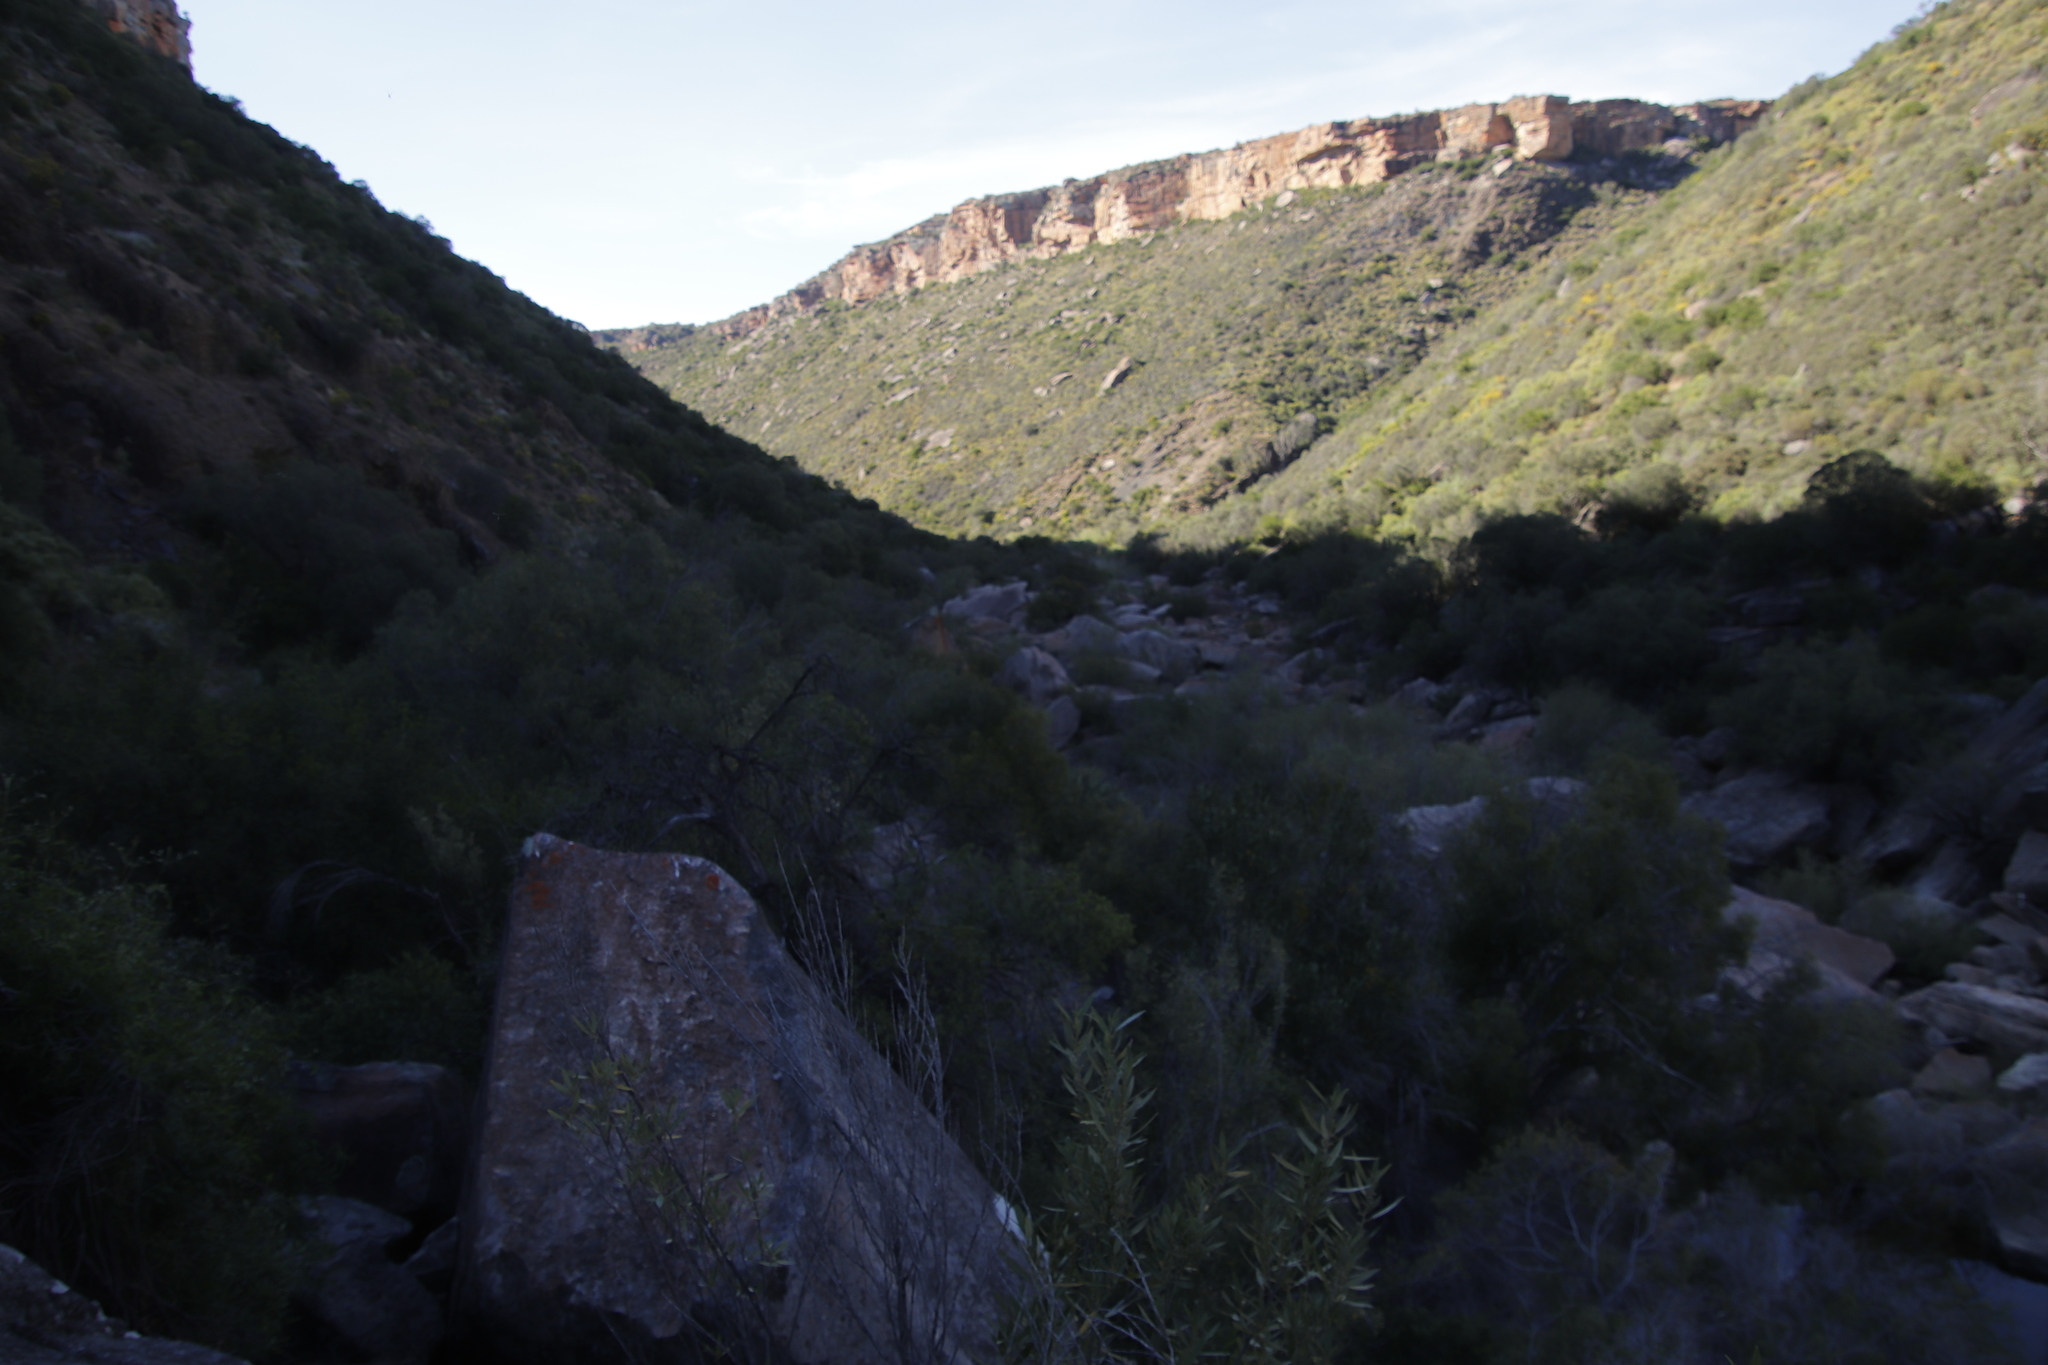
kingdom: Plantae
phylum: Tracheophyta
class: Magnoliopsida
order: Lamiales
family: Oleaceae
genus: Olea
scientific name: Olea europaea
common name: Olive
